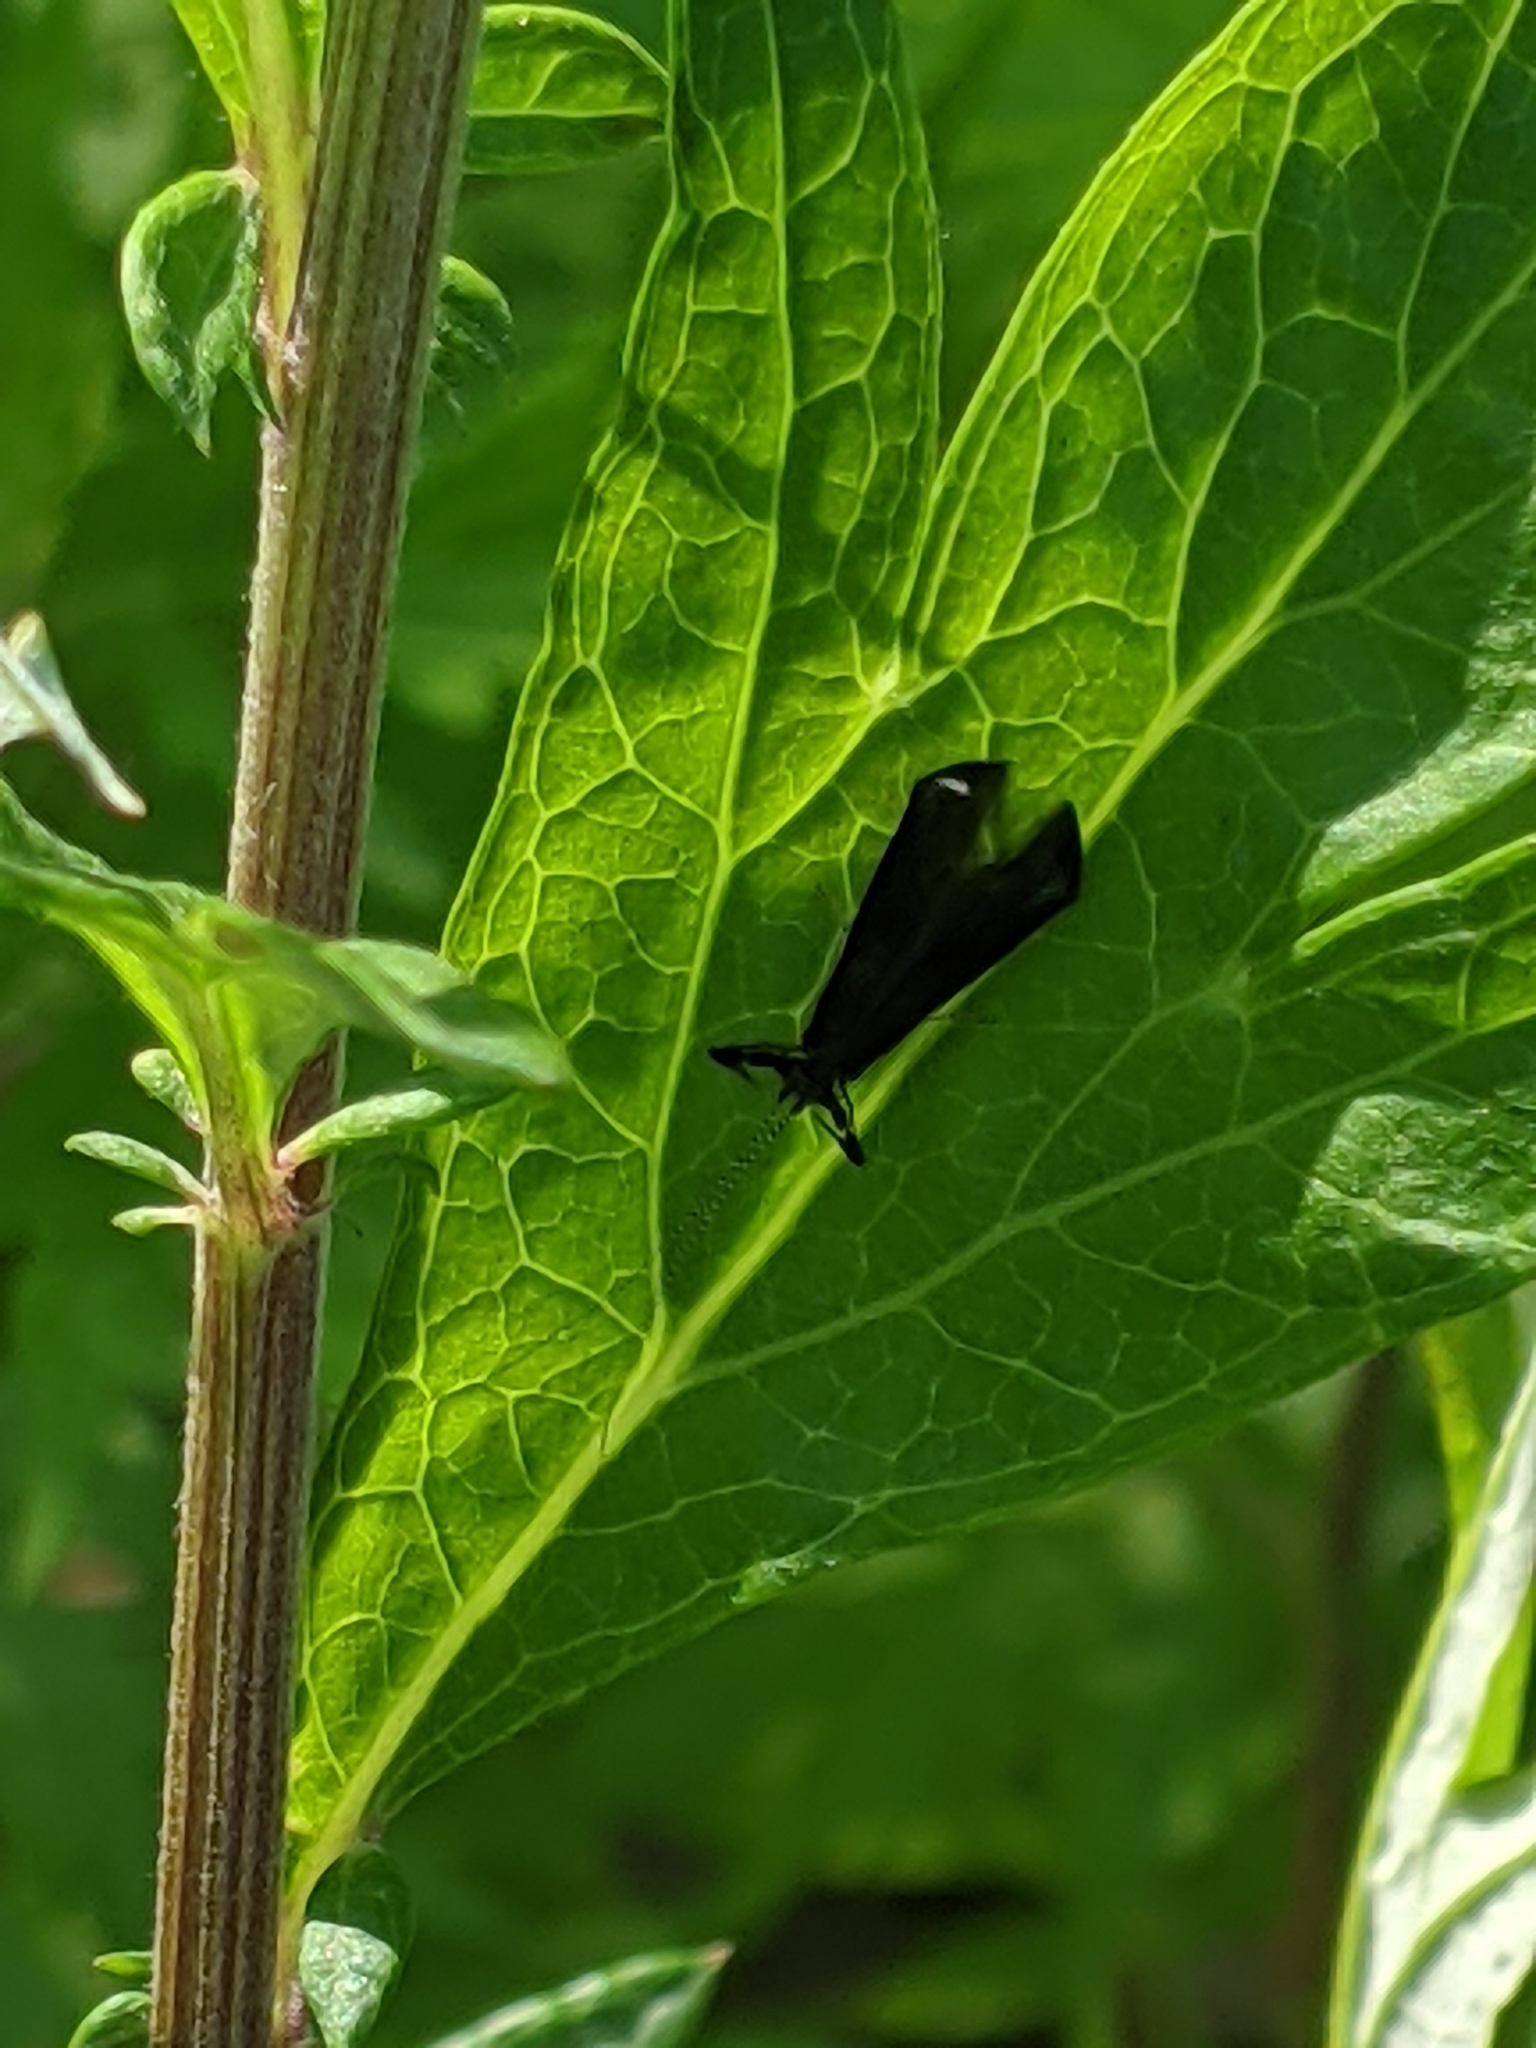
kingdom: Animalia
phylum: Arthropoda
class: Insecta
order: Trichoptera
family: Leptoceridae
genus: Mystacides
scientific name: Mystacides sepulchralis
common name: Black dancer caddisfly
